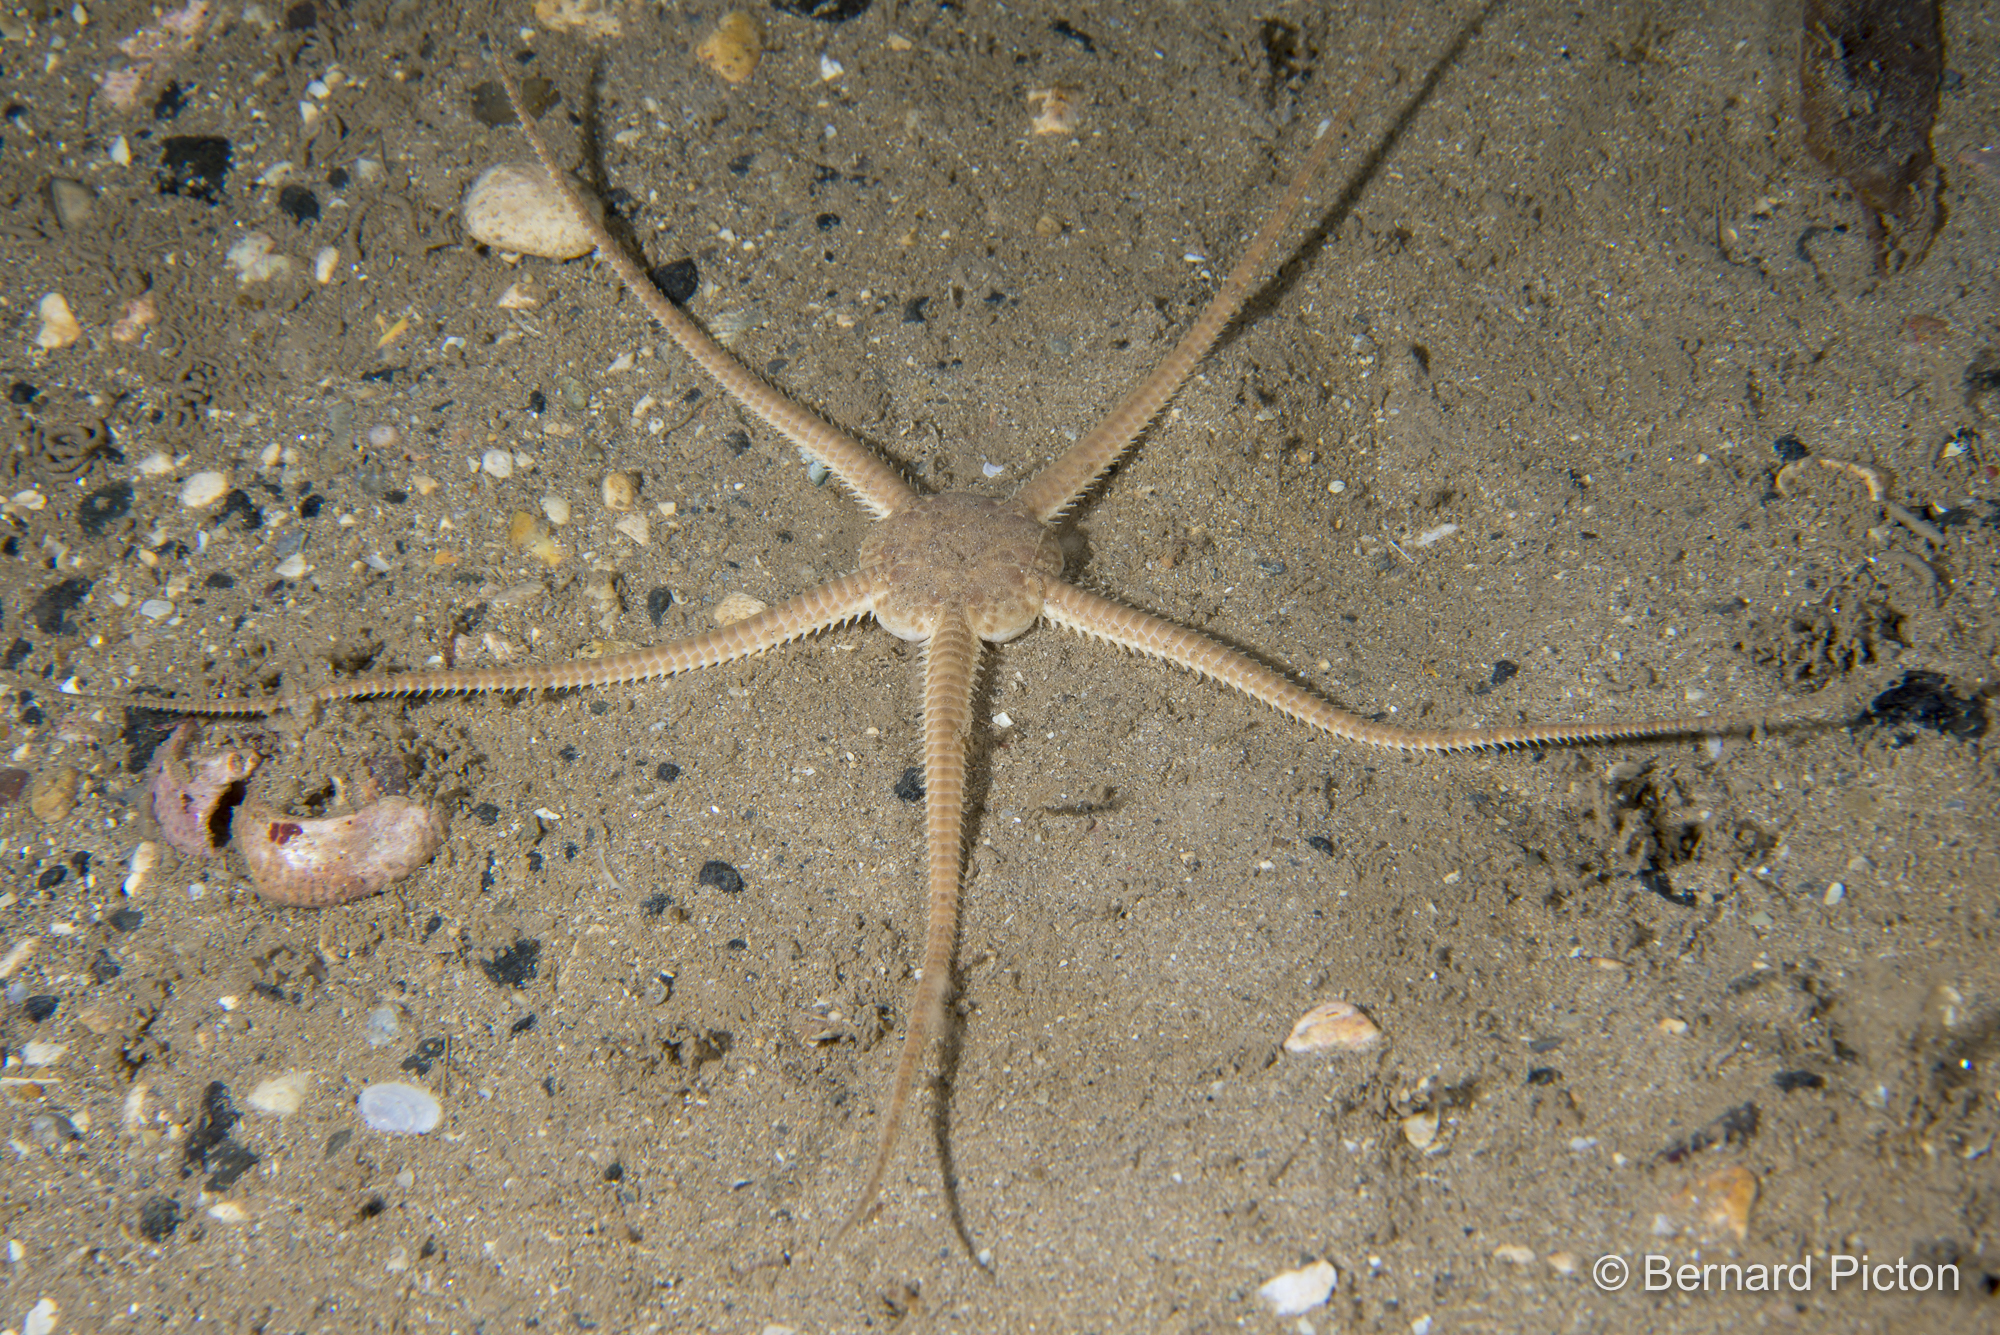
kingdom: Animalia
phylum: Echinodermata
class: Ophiuroidea
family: Ophiuridae
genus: Ophiura
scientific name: Ophiura ophiura
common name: Serpent star
